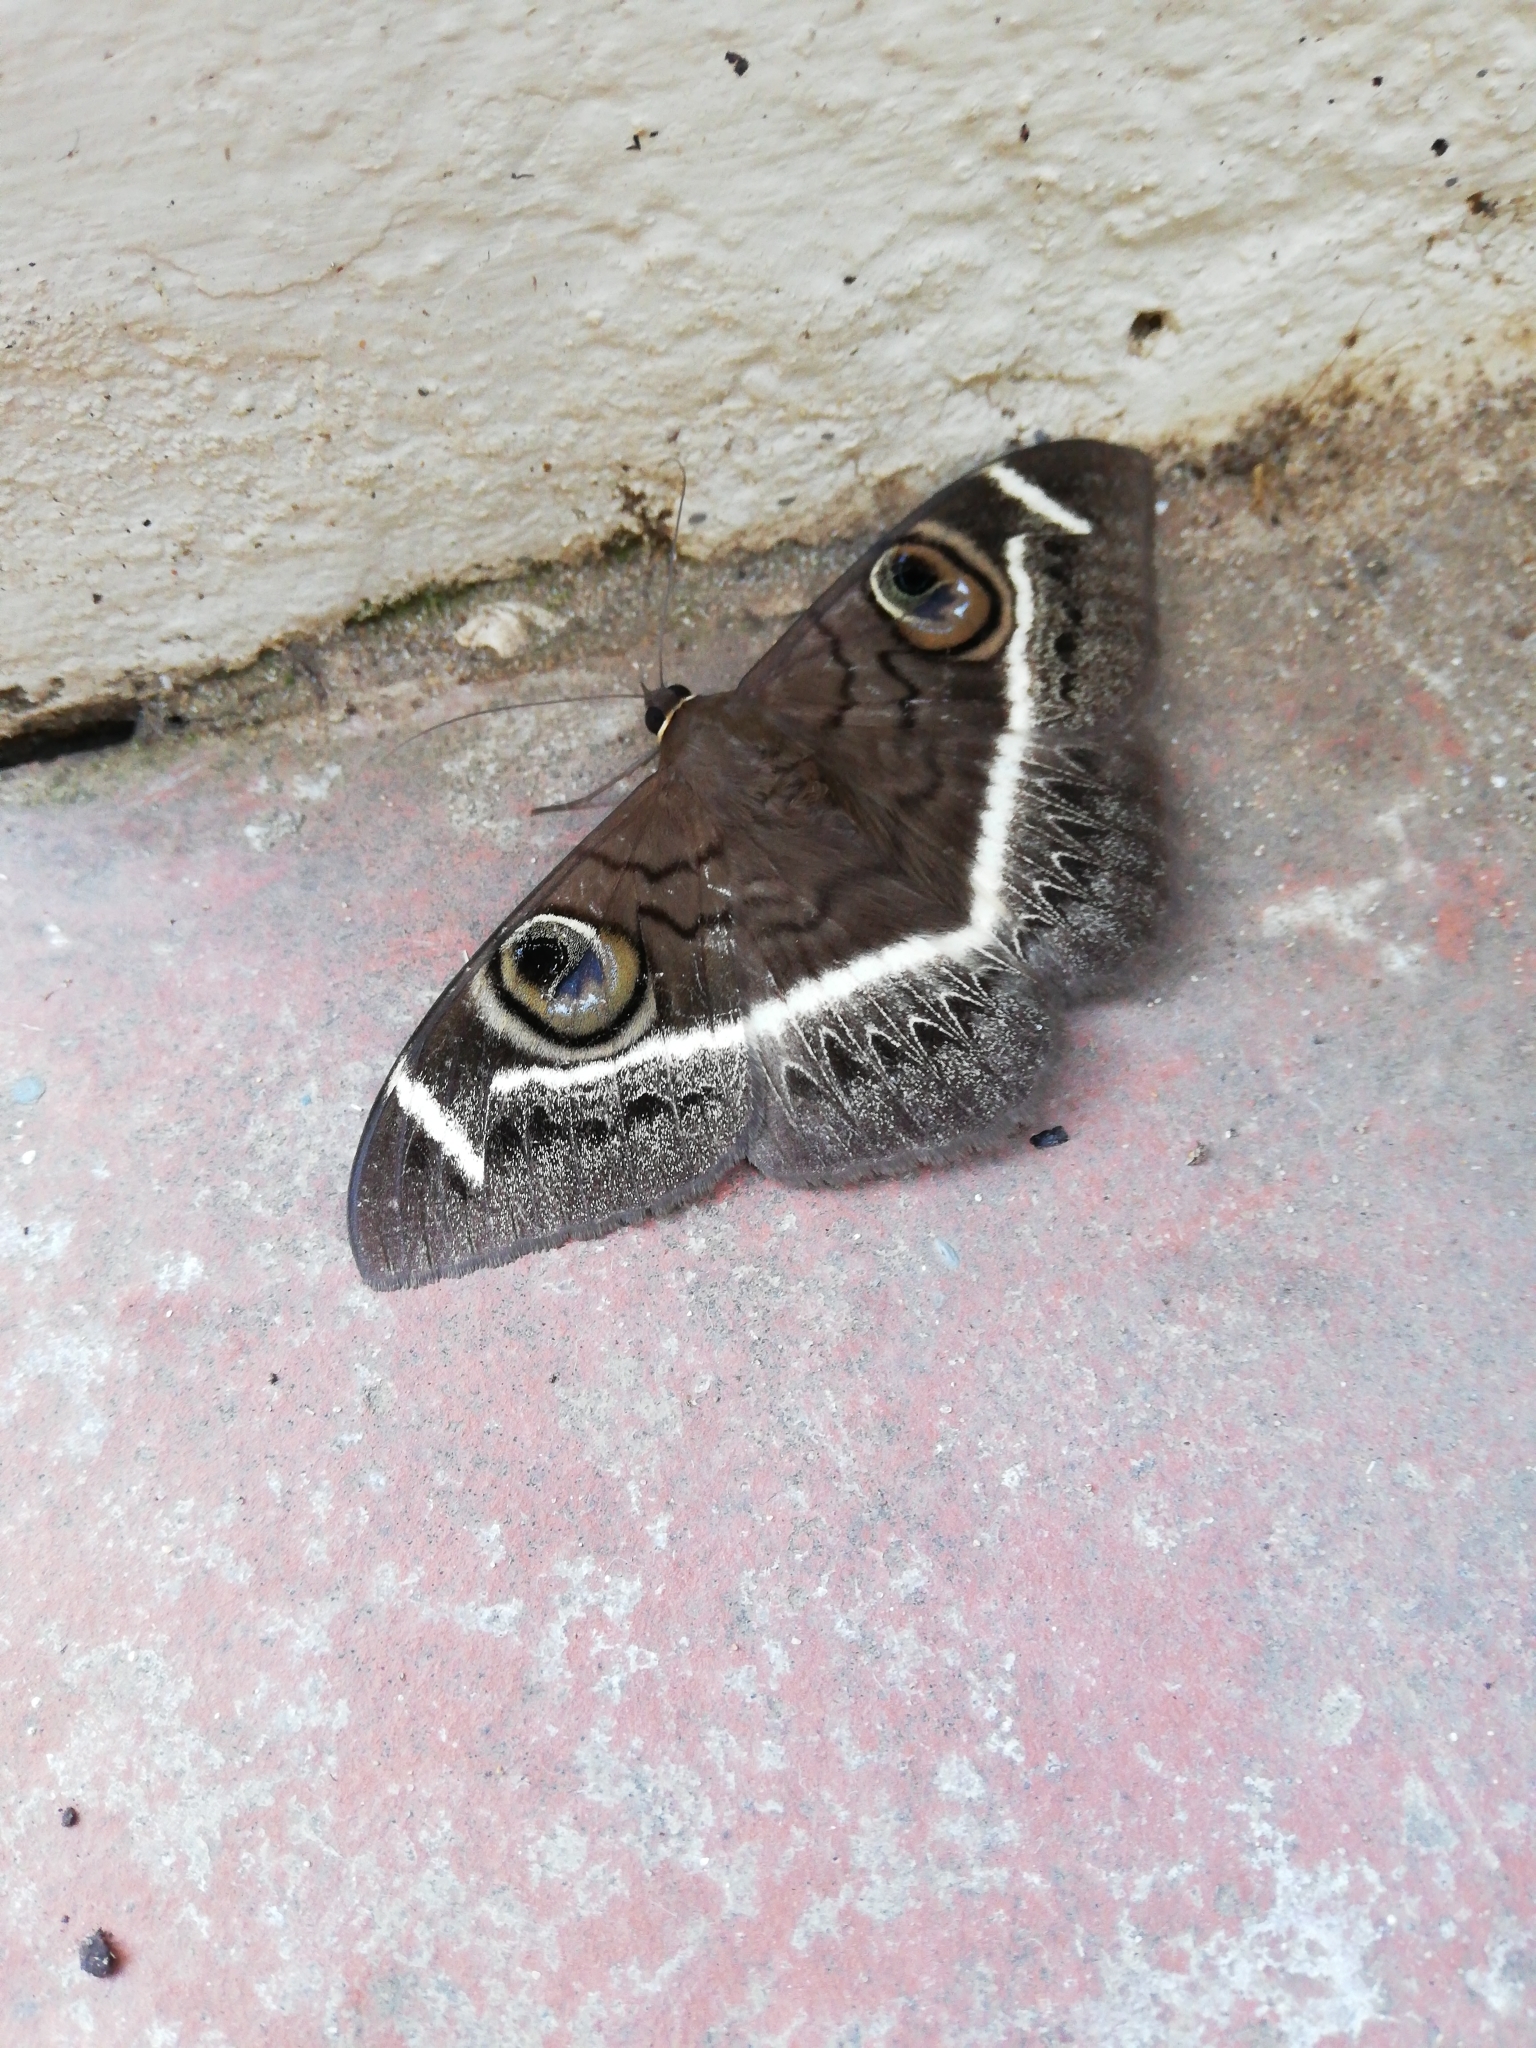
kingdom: Animalia
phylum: Arthropoda
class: Insecta
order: Lepidoptera
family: Erebidae
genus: Cyligramma
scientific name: Cyligramma latona
